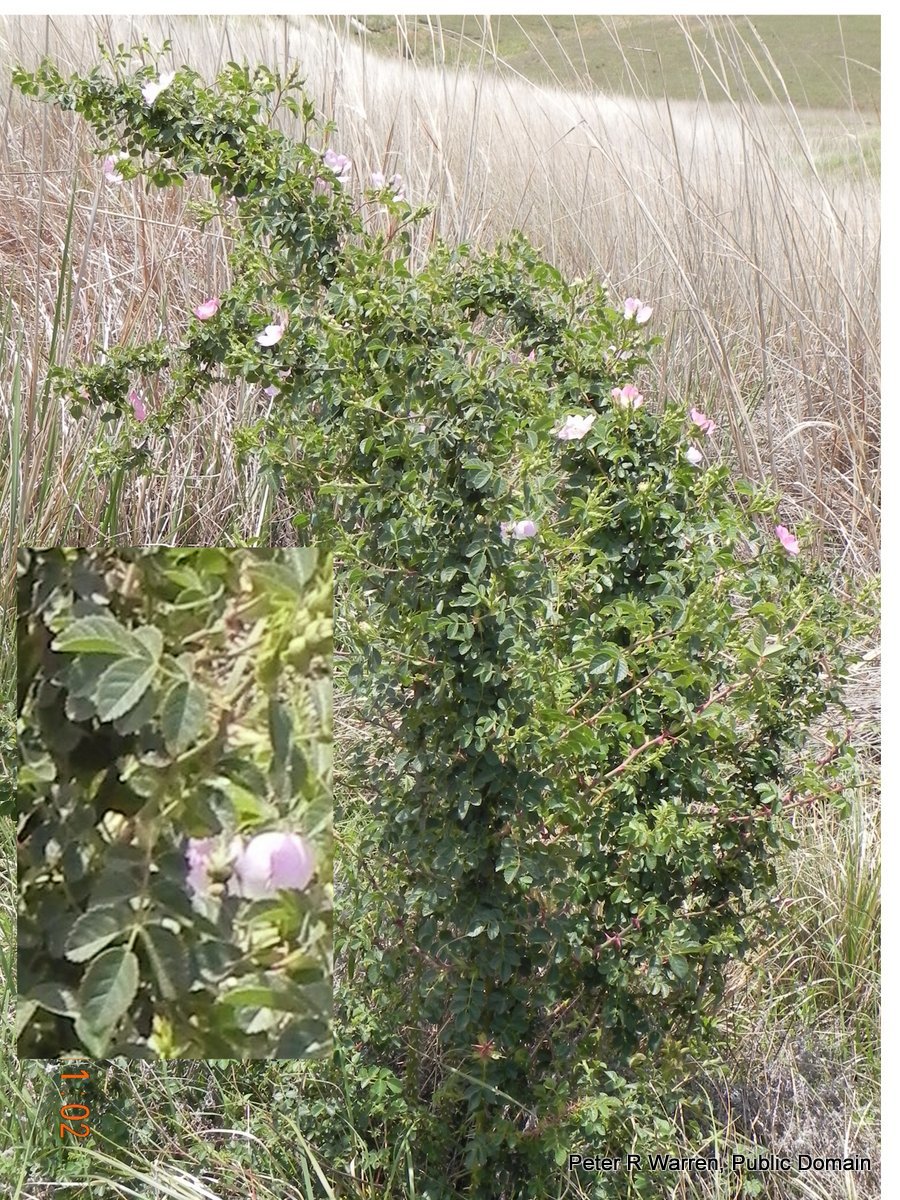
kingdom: Plantae
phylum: Tracheophyta
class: Magnoliopsida
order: Rosales
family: Rosaceae
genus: Rosa
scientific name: Rosa rubiginosa
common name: Sweet-briar
